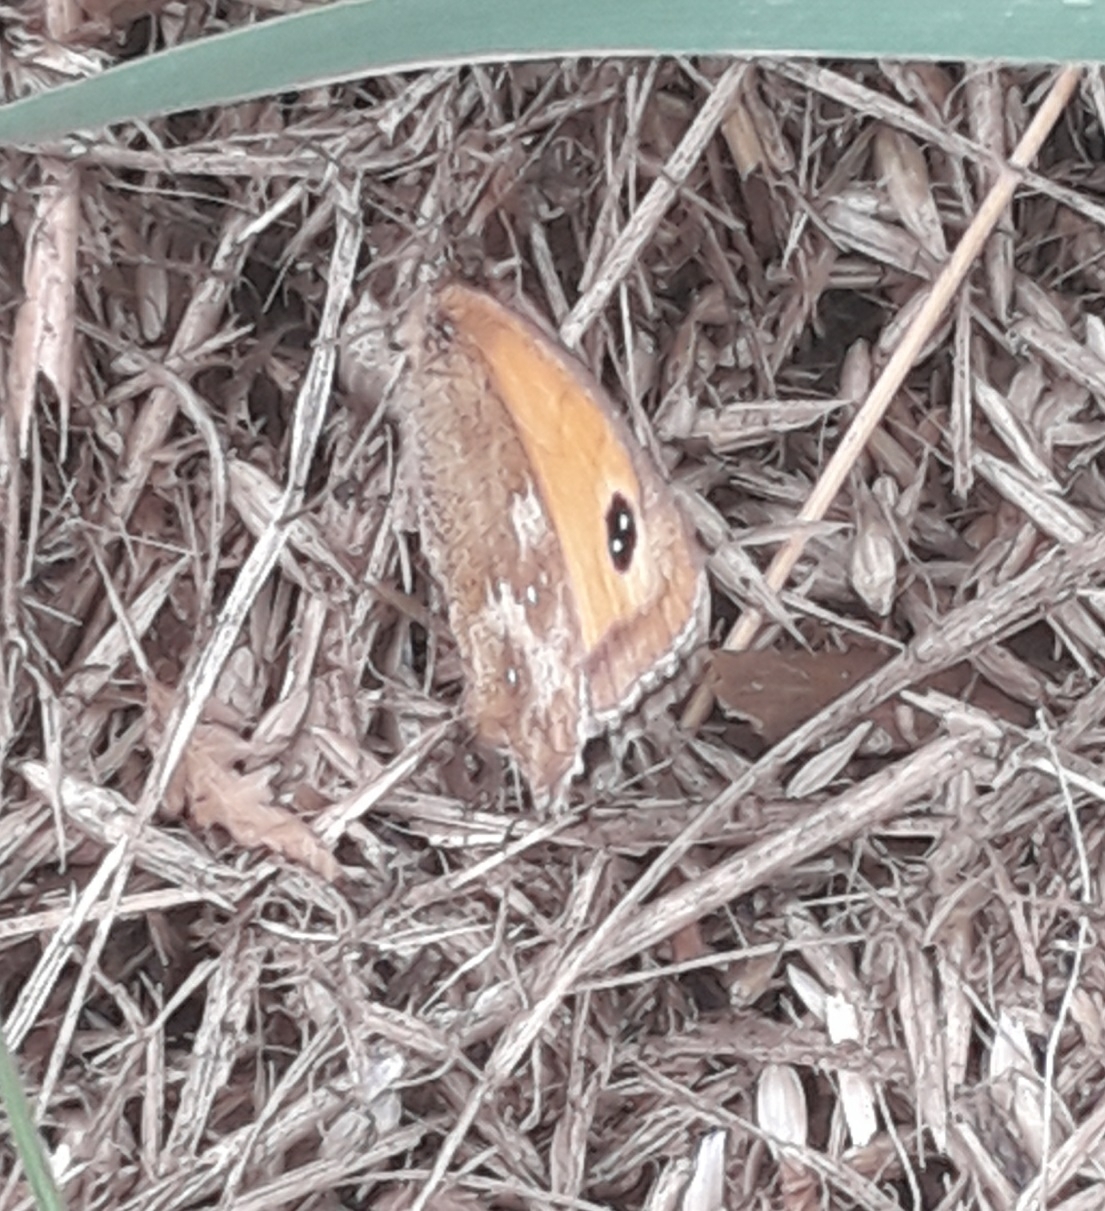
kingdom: Animalia
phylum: Arthropoda
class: Insecta
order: Lepidoptera
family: Nymphalidae
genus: Pyronia
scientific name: Pyronia tithonus
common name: Gatekeeper
